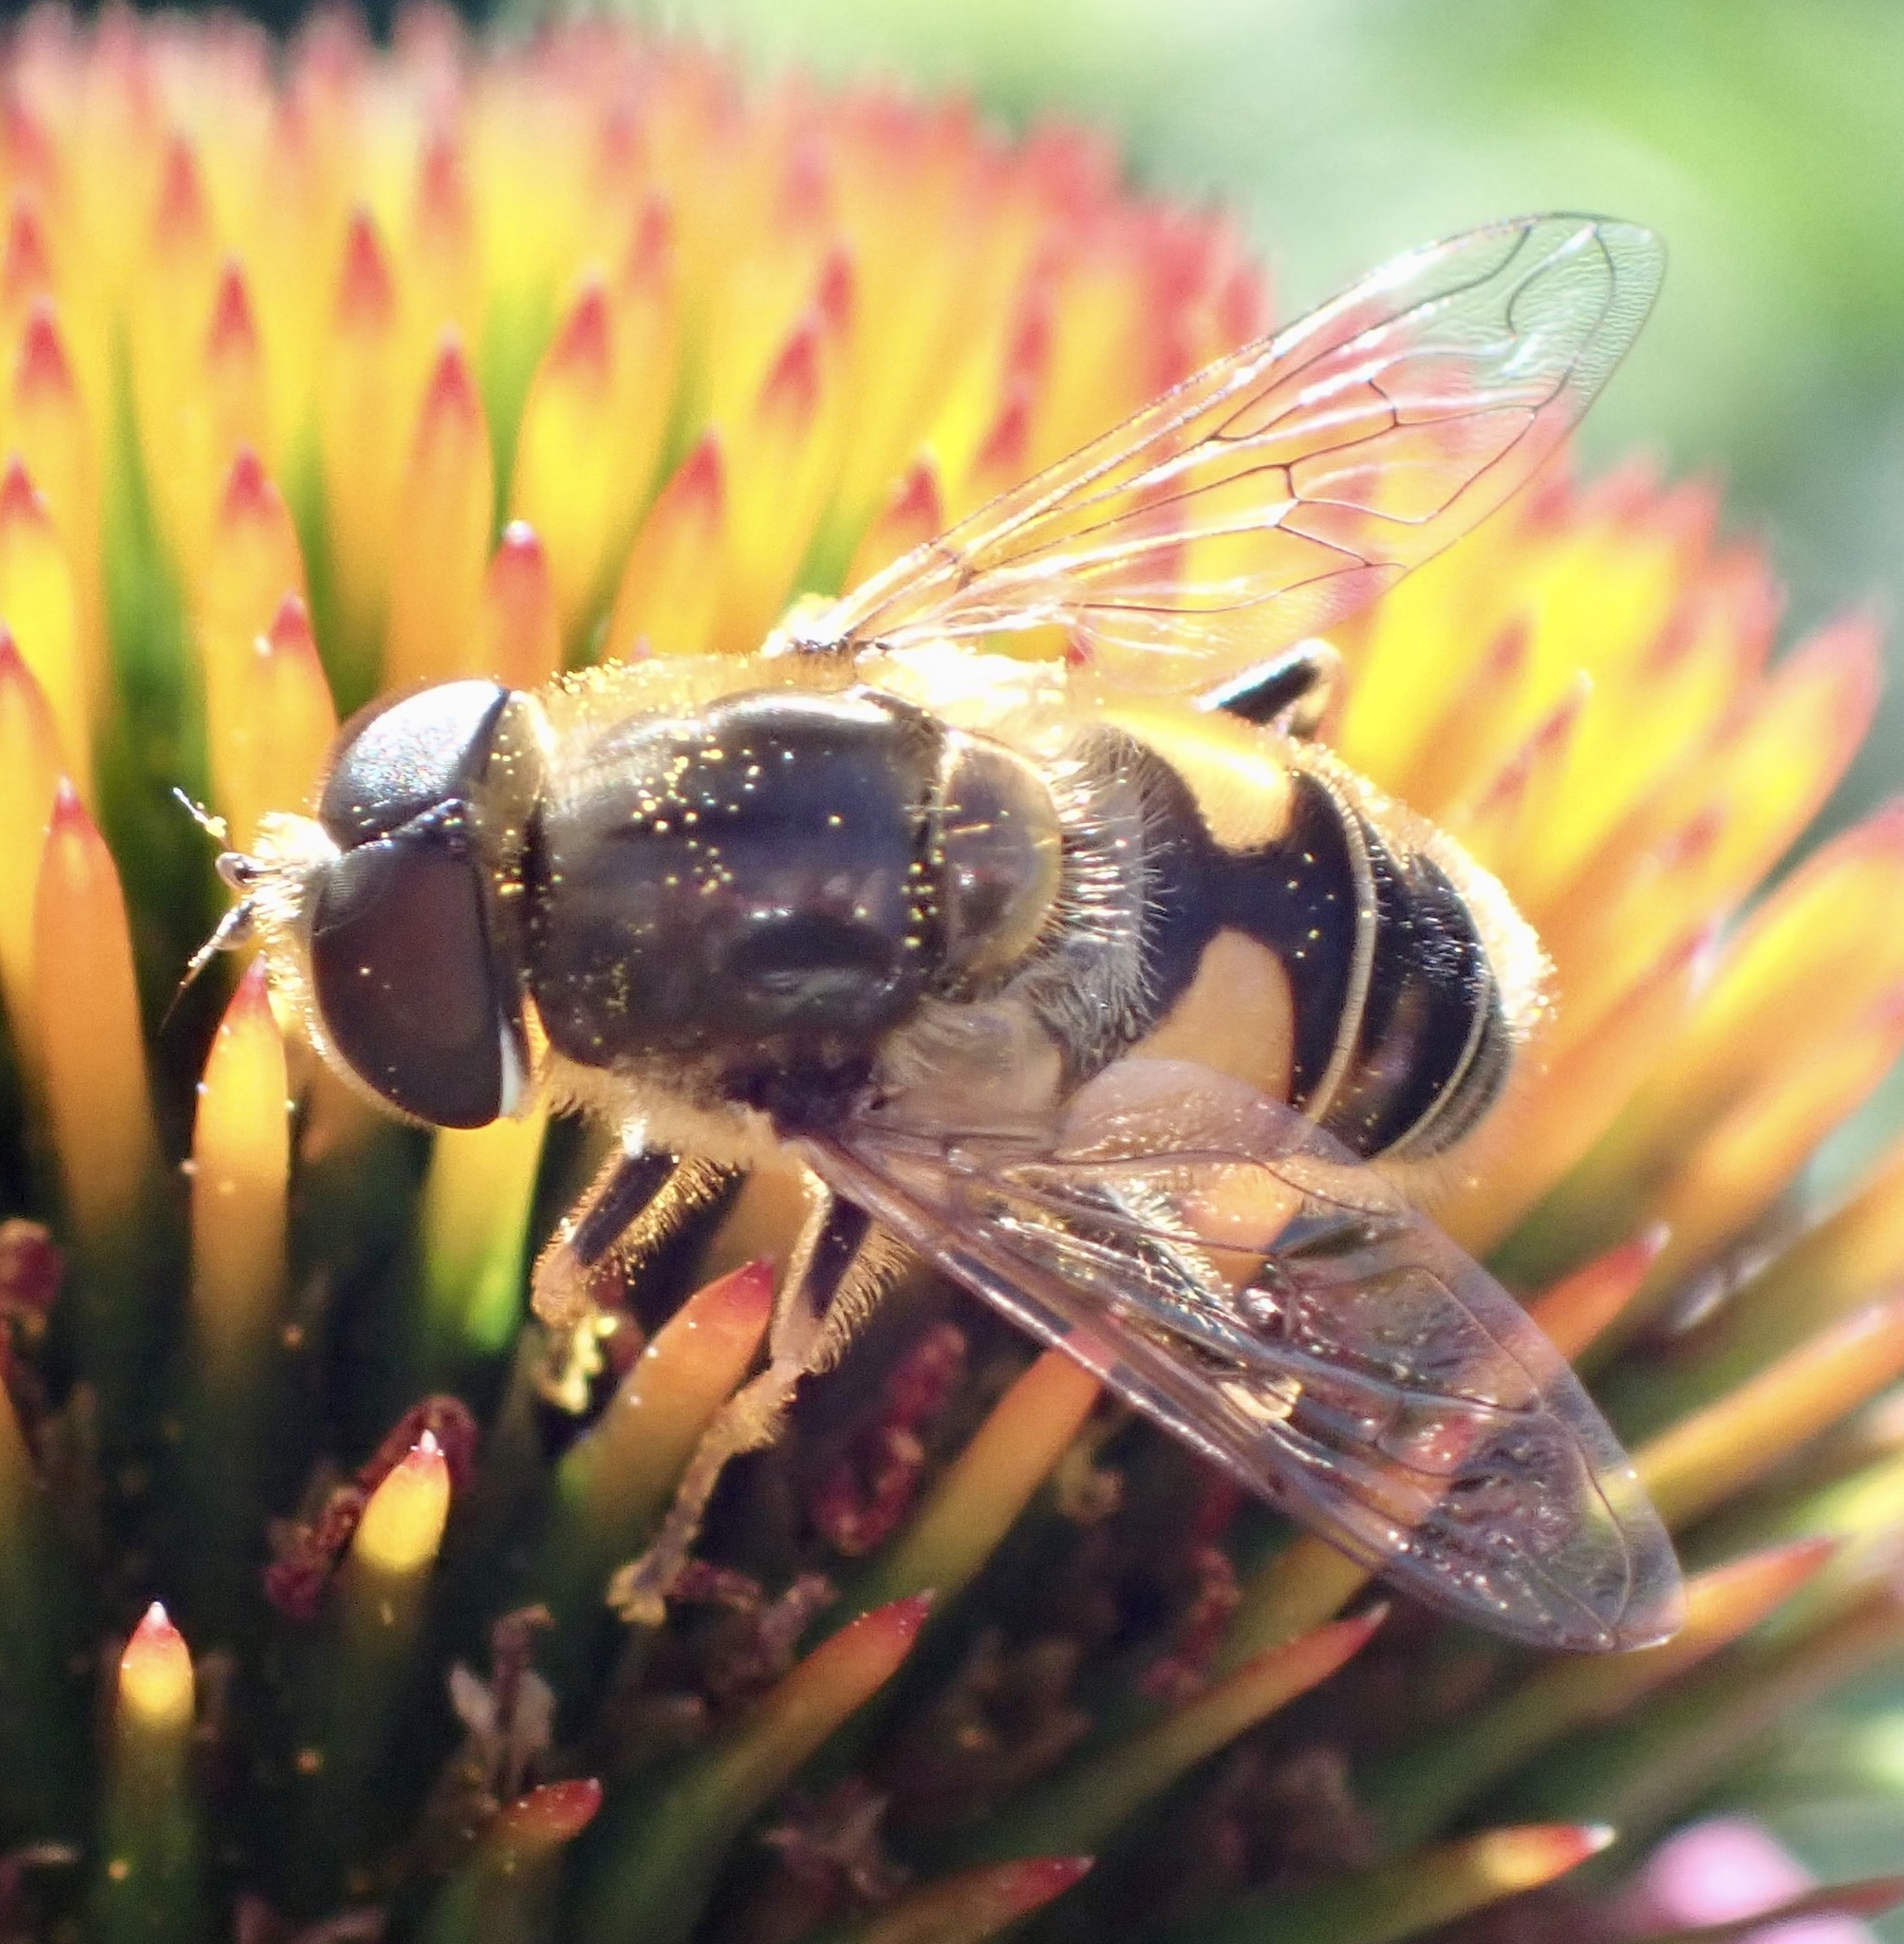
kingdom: Animalia
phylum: Arthropoda
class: Insecta
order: Diptera
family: Syrphidae
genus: Eristalis
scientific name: Eristalis nemorum
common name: Orange-spined drone fly
